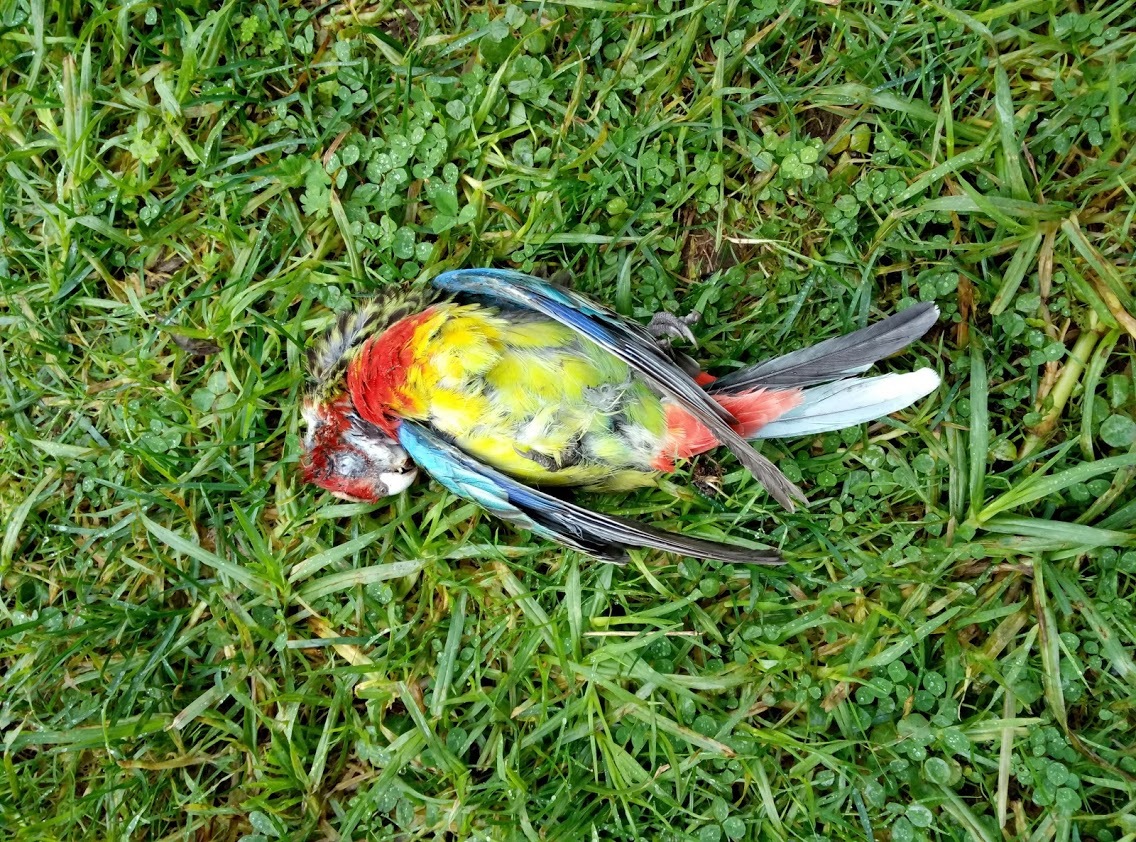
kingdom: Animalia
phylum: Chordata
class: Aves
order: Psittaciformes
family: Psittacidae
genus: Platycercus
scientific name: Platycercus eximius
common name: Eastern rosella
